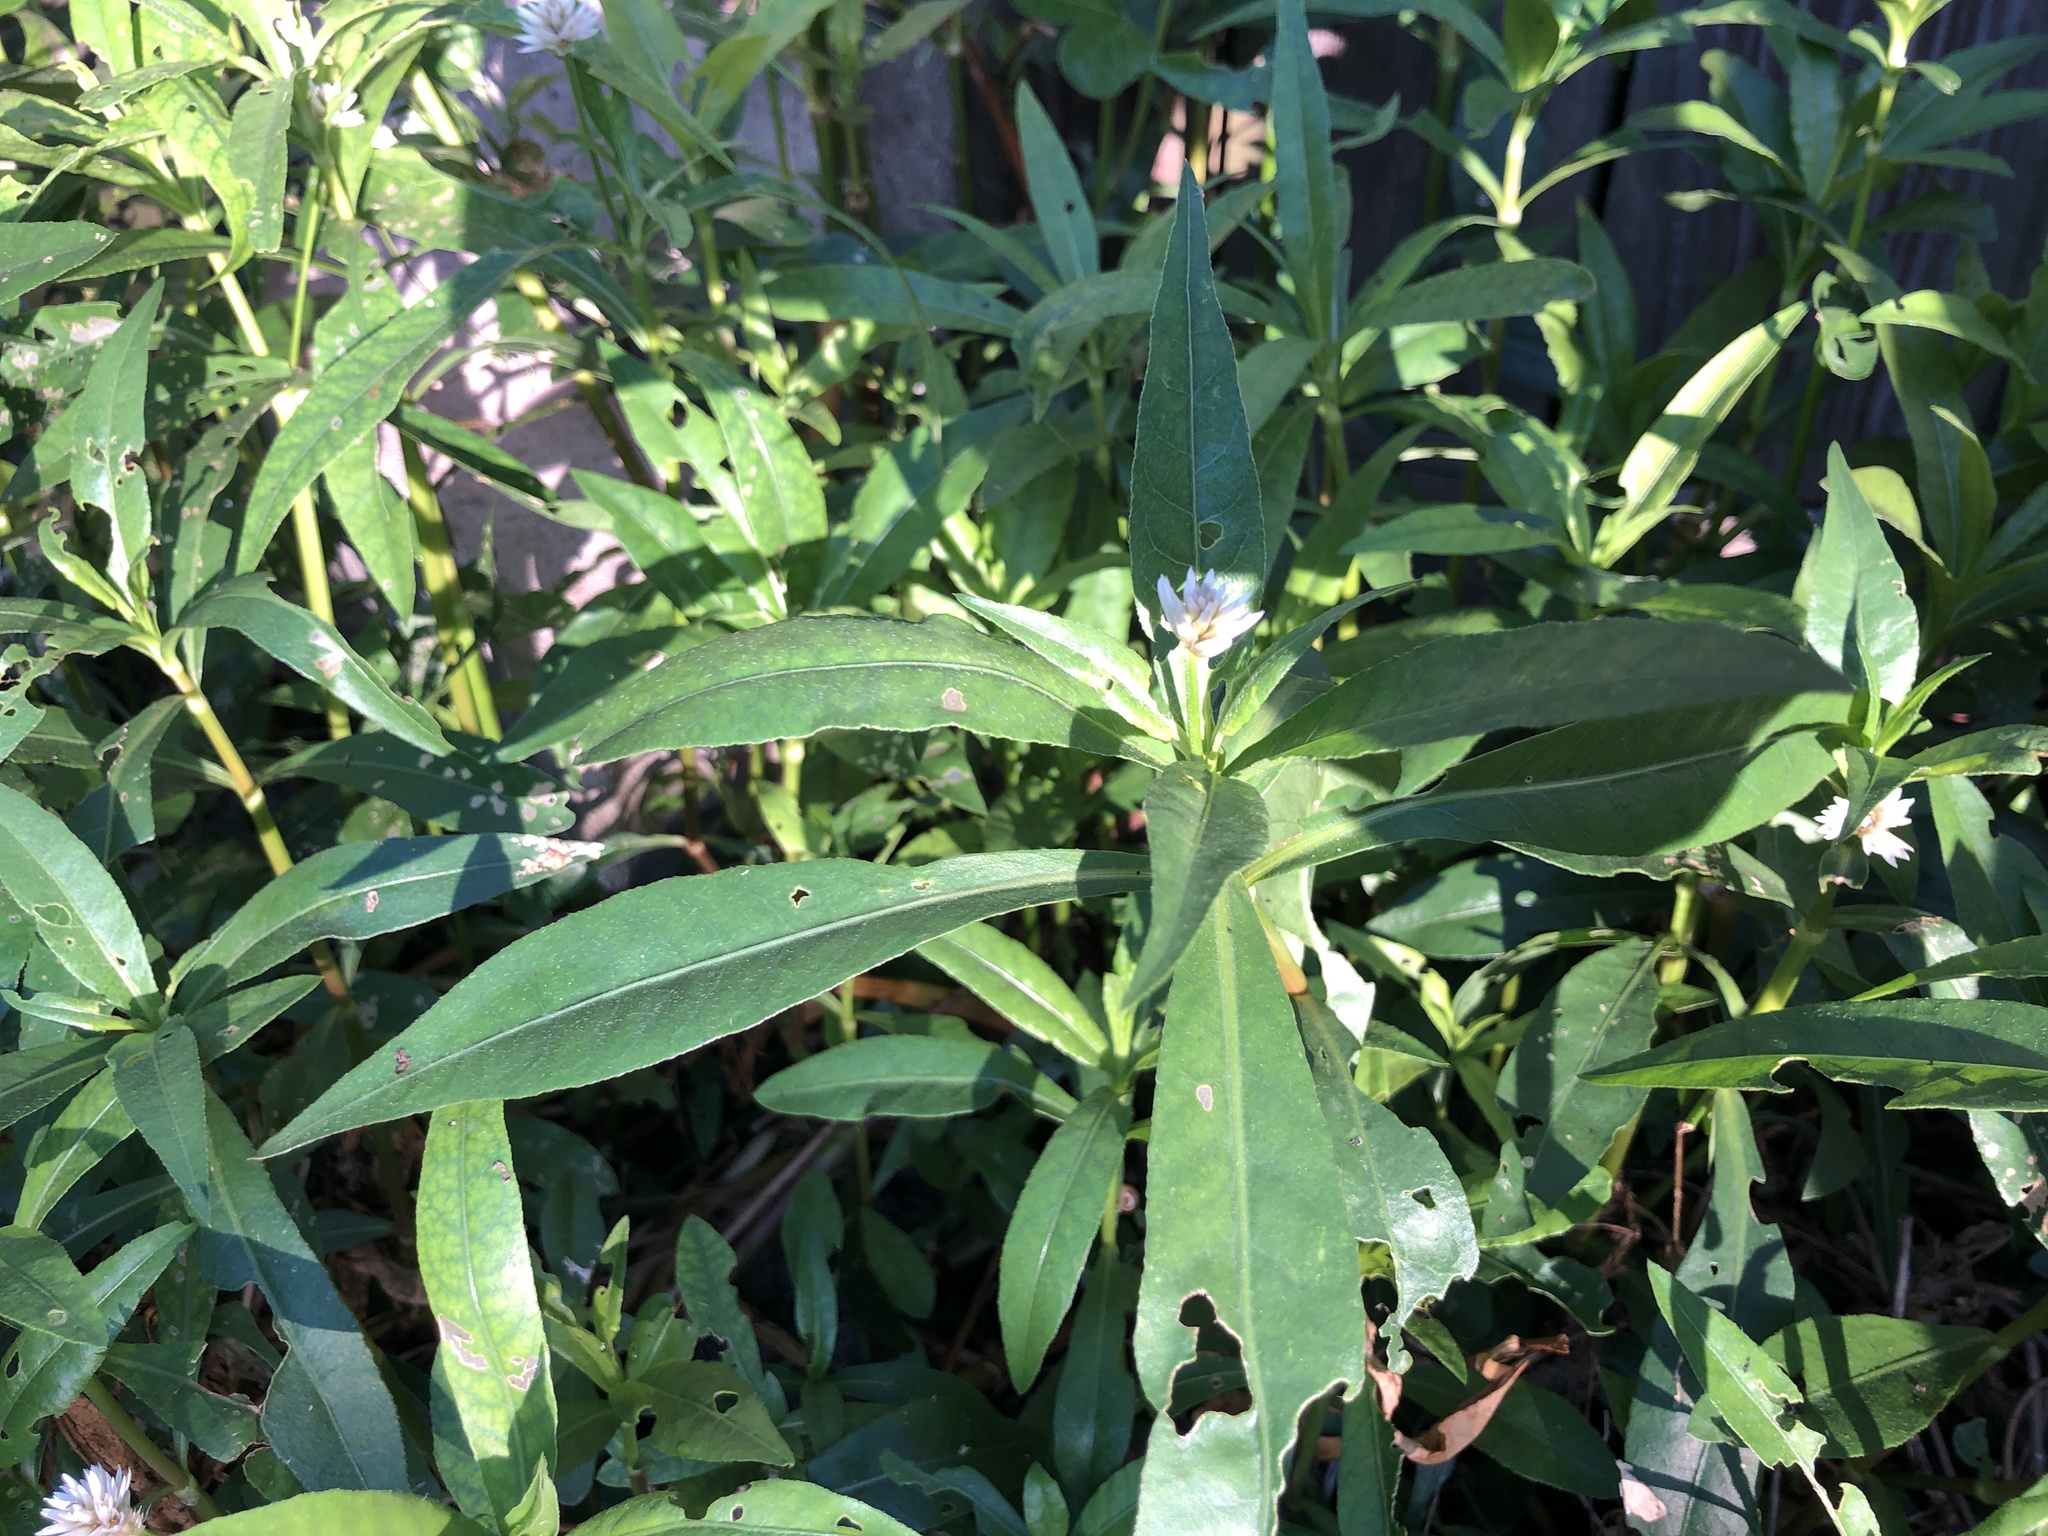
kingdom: Plantae
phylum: Tracheophyta
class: Magnoliopsida
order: Caryophyllales
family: Amaranthaceae
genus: Alternanthera
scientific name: Alternanthera philoxeroides
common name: Alligatorweed
